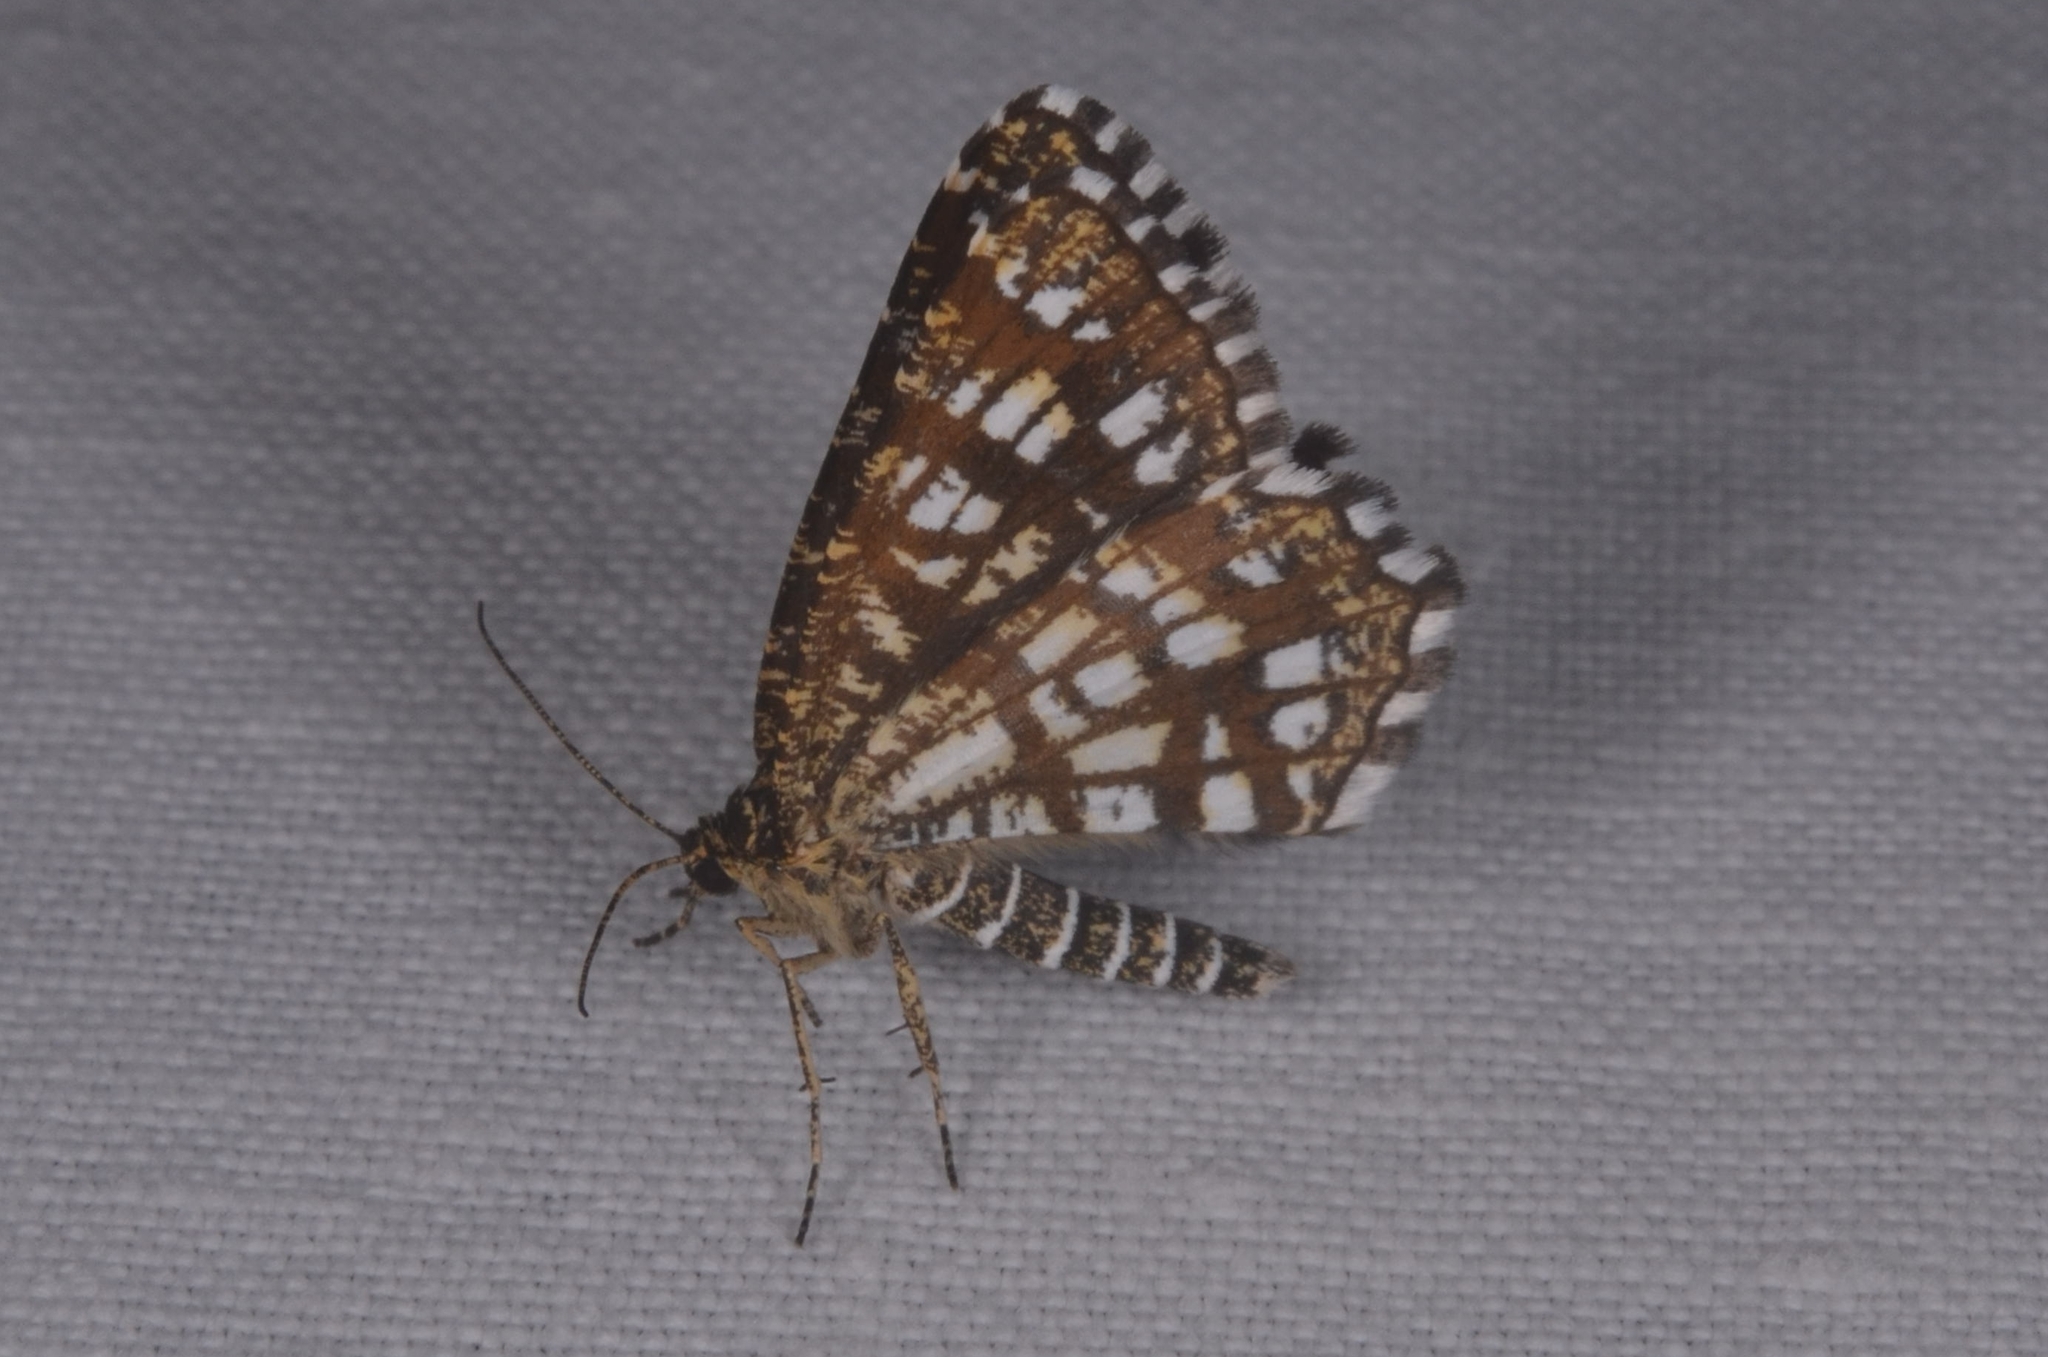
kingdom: Animalia
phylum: Arthropoda
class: Insecta
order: Lepidoptera
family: Geometridae
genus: Chiasmia
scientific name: Chiasmia clathrata
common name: Latticed heath
